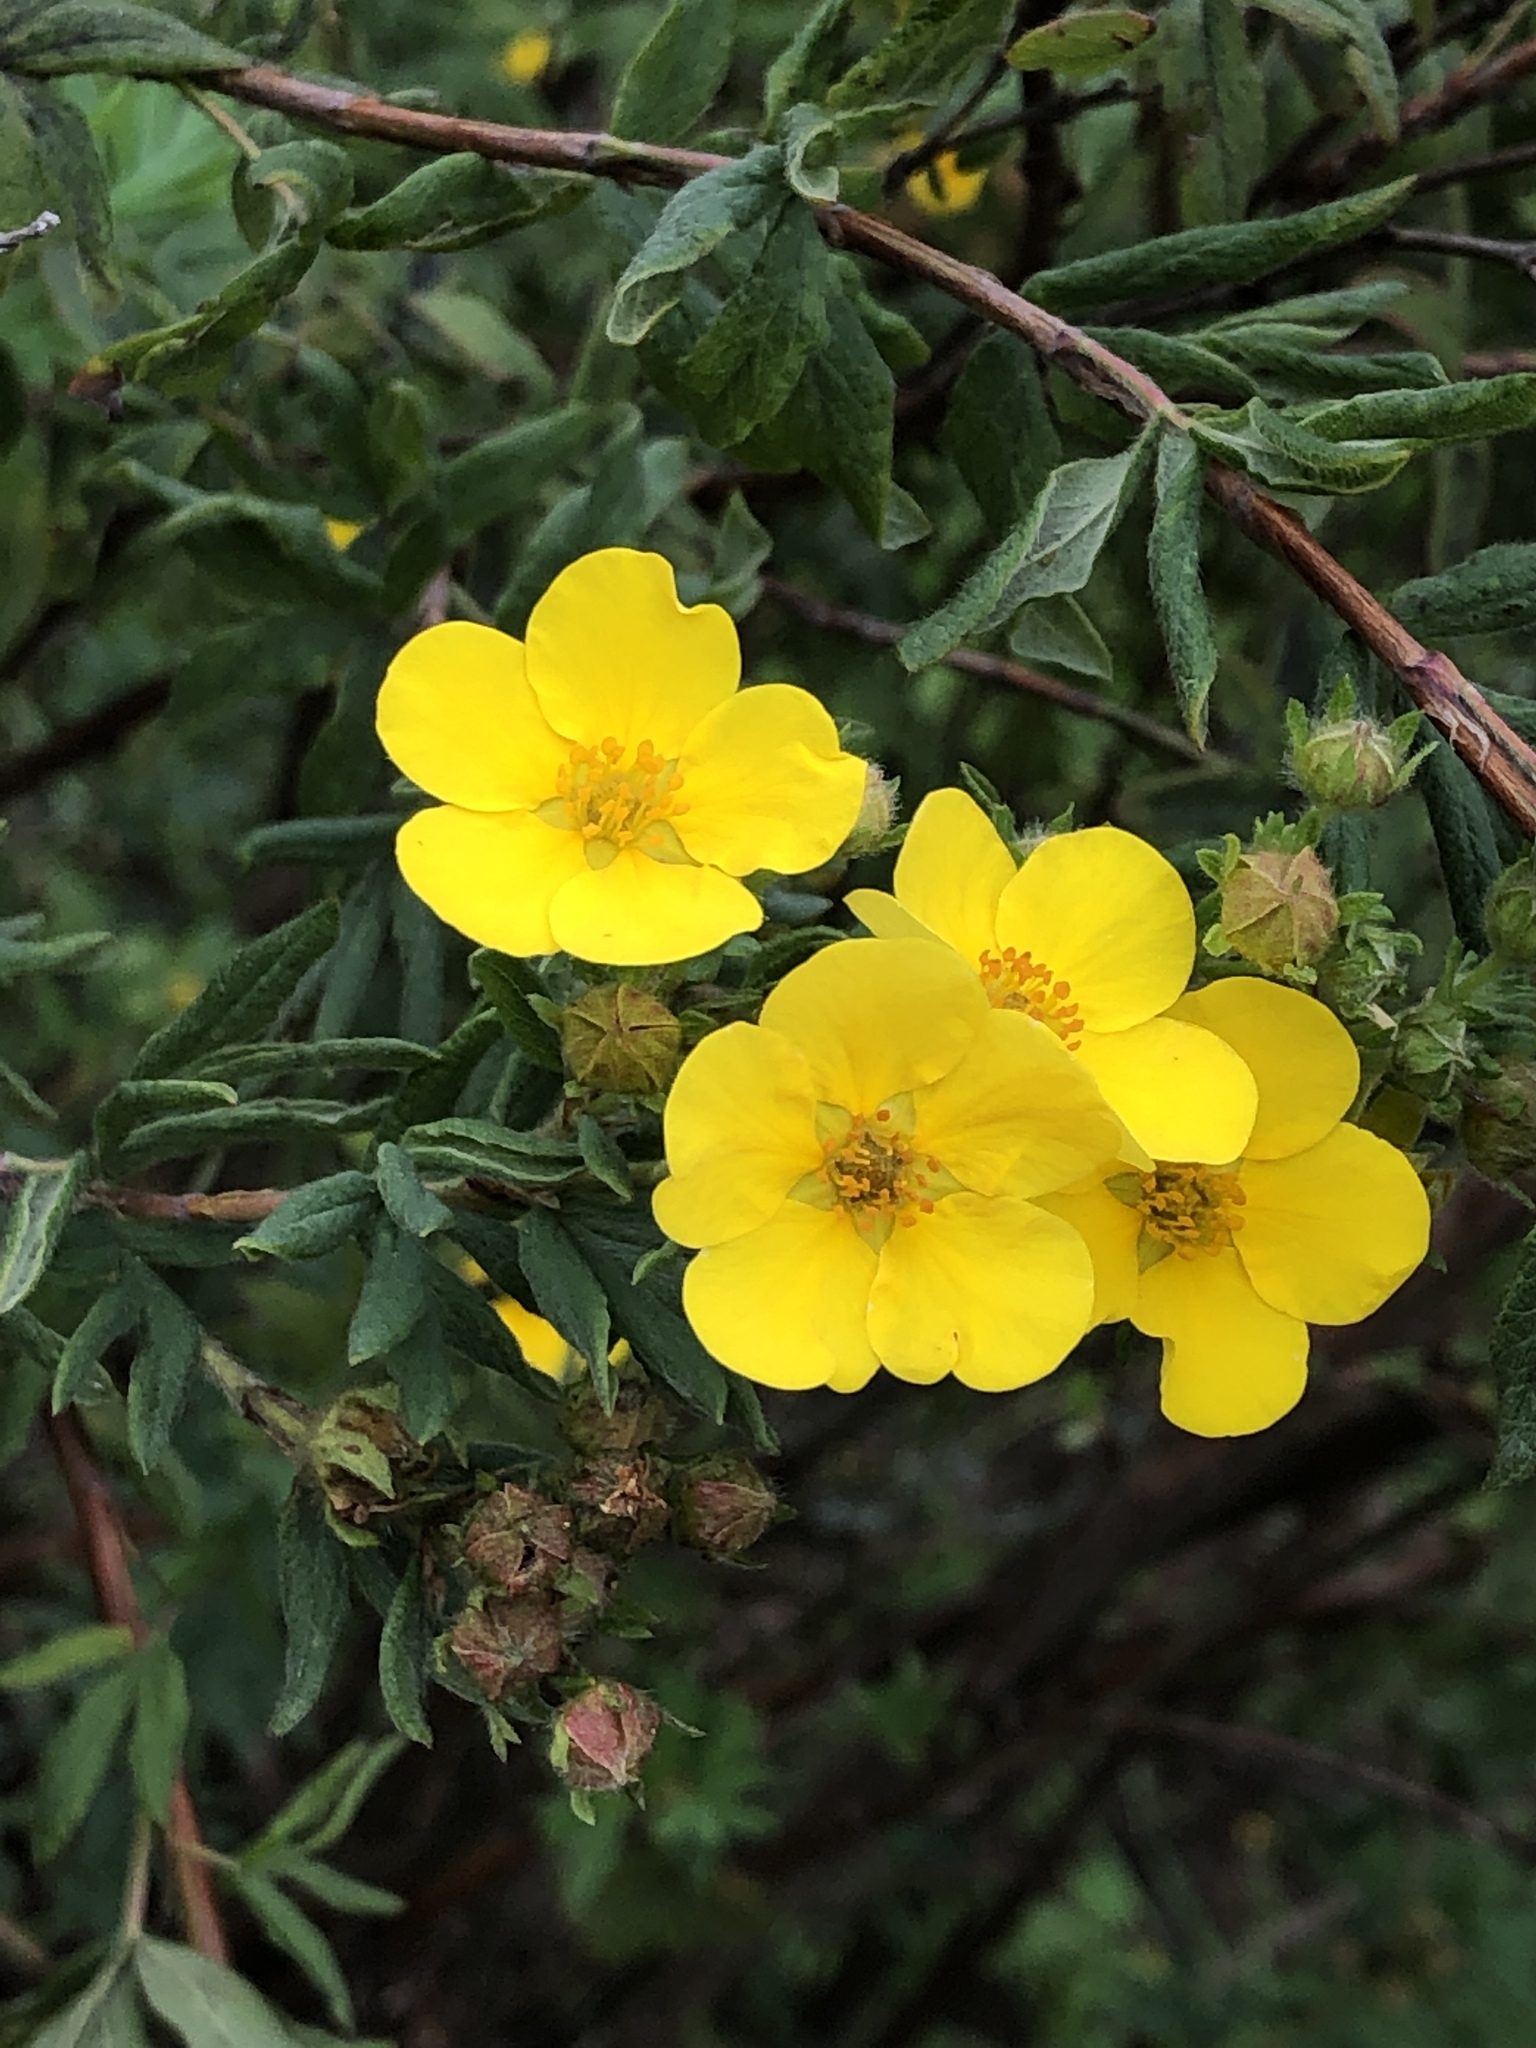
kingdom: Plantae
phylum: Tracheophyta
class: Magnoliopsida
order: Rosales
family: Rosaceae
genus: Dasiphora
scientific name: Dasiphora fruticosa
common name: Shrubby cinquefoil
